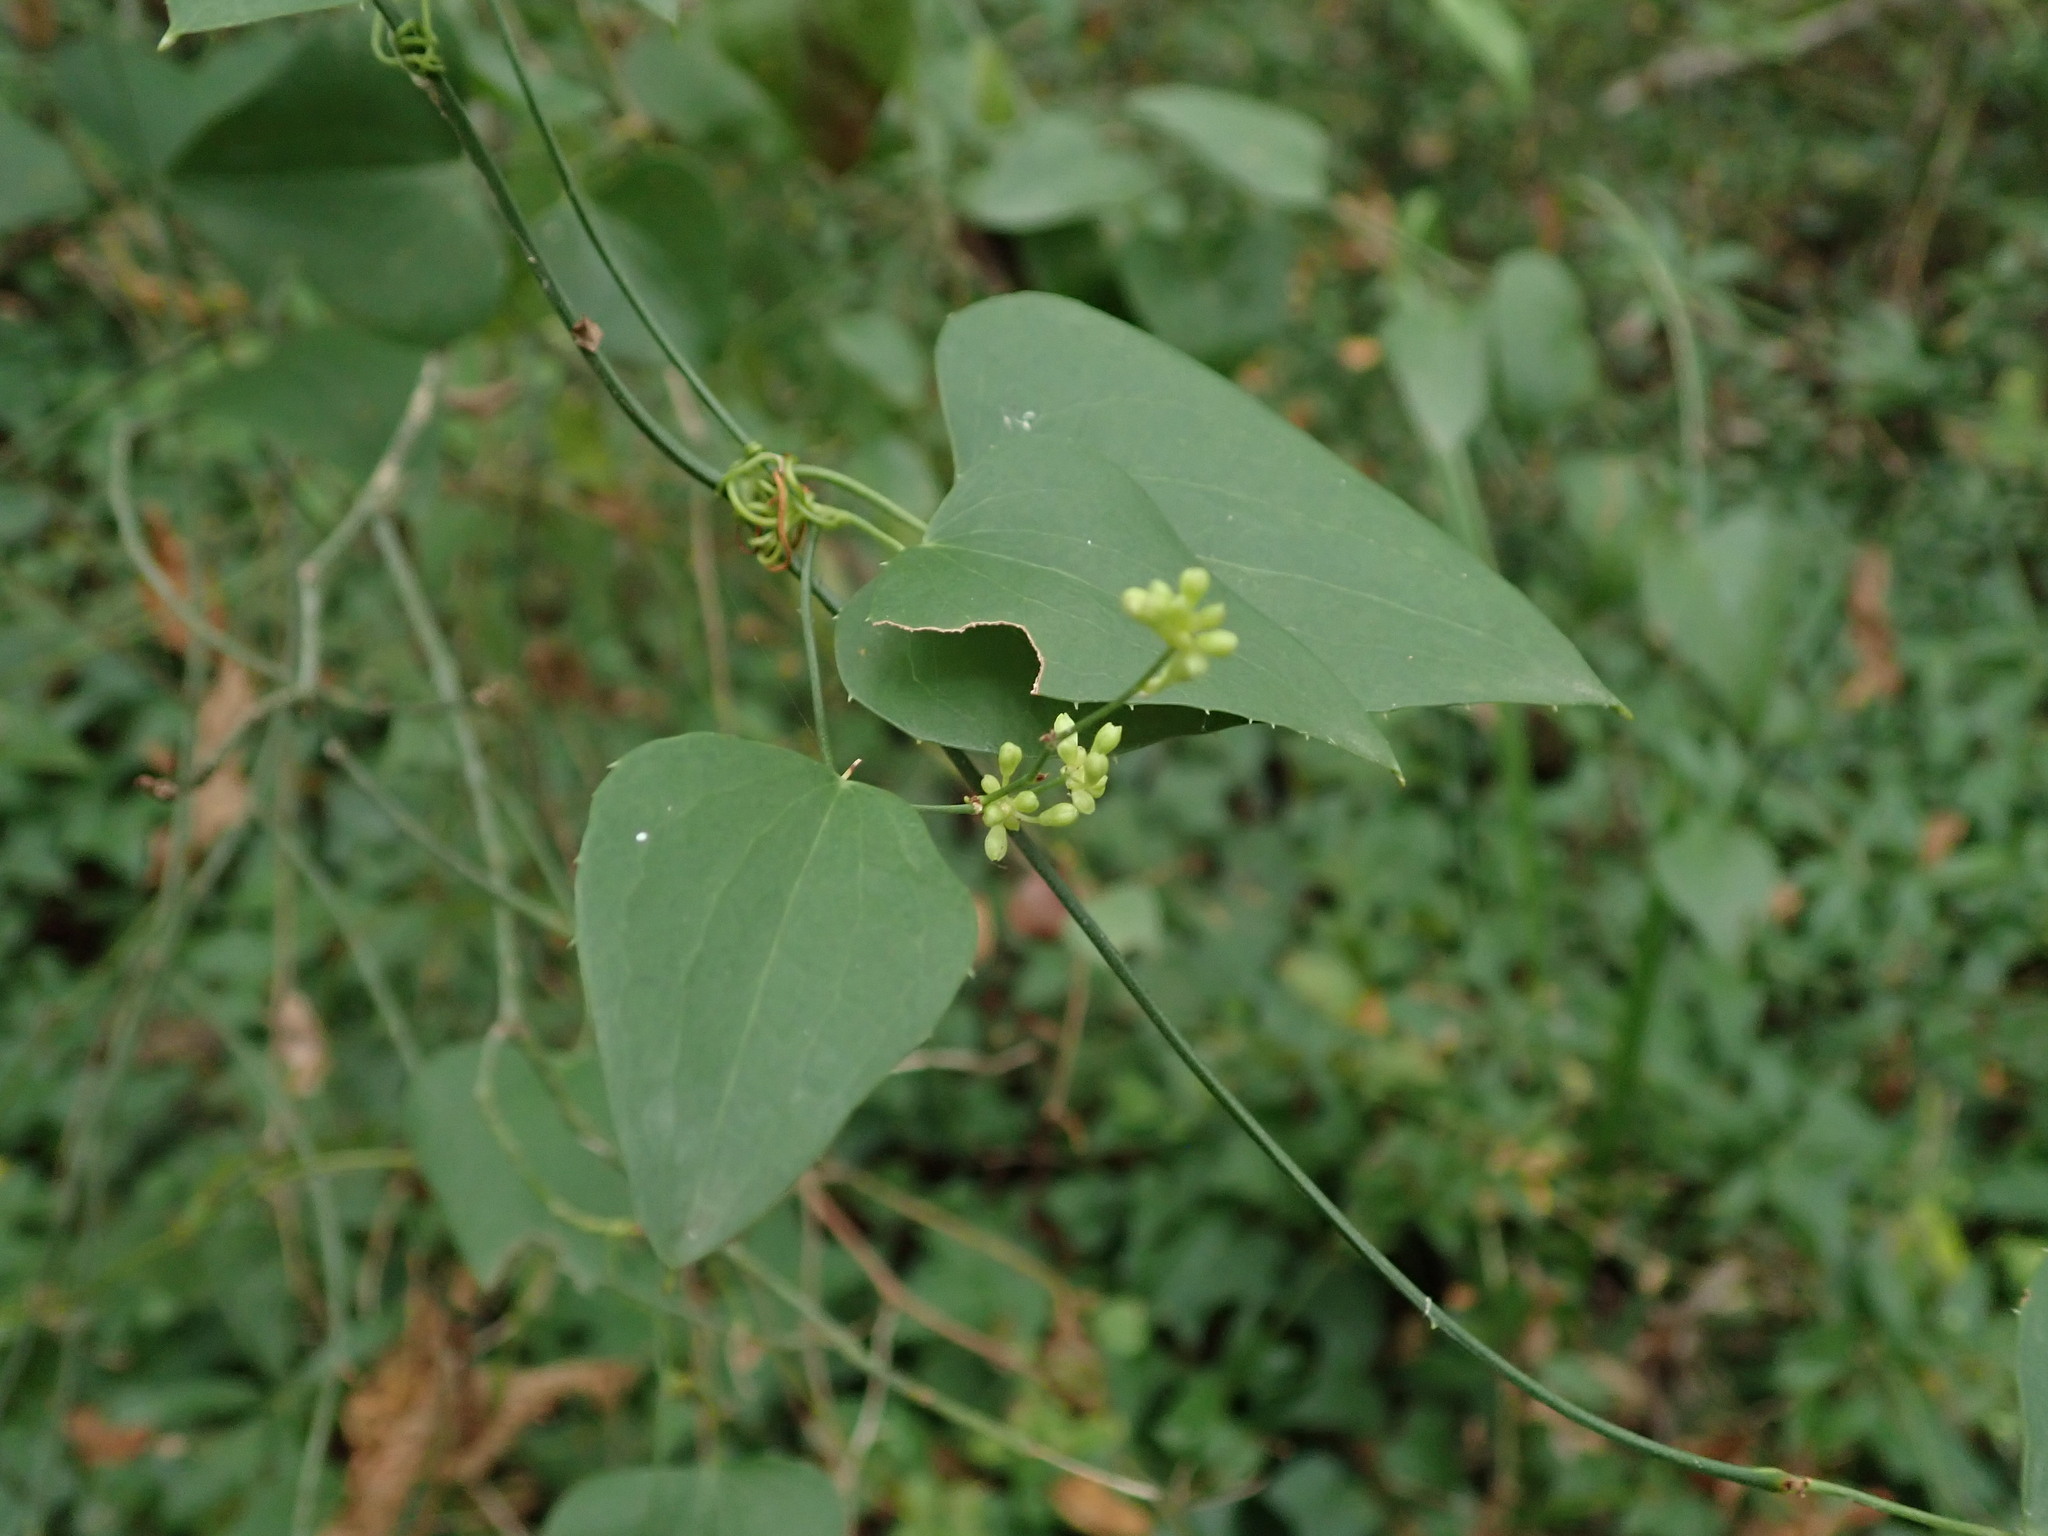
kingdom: Plantae
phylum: Tracheophyta
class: Liliopsida
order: Liliales
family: Smilacaceae
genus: Smilax
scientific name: Smilax aspera
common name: Common smilax
